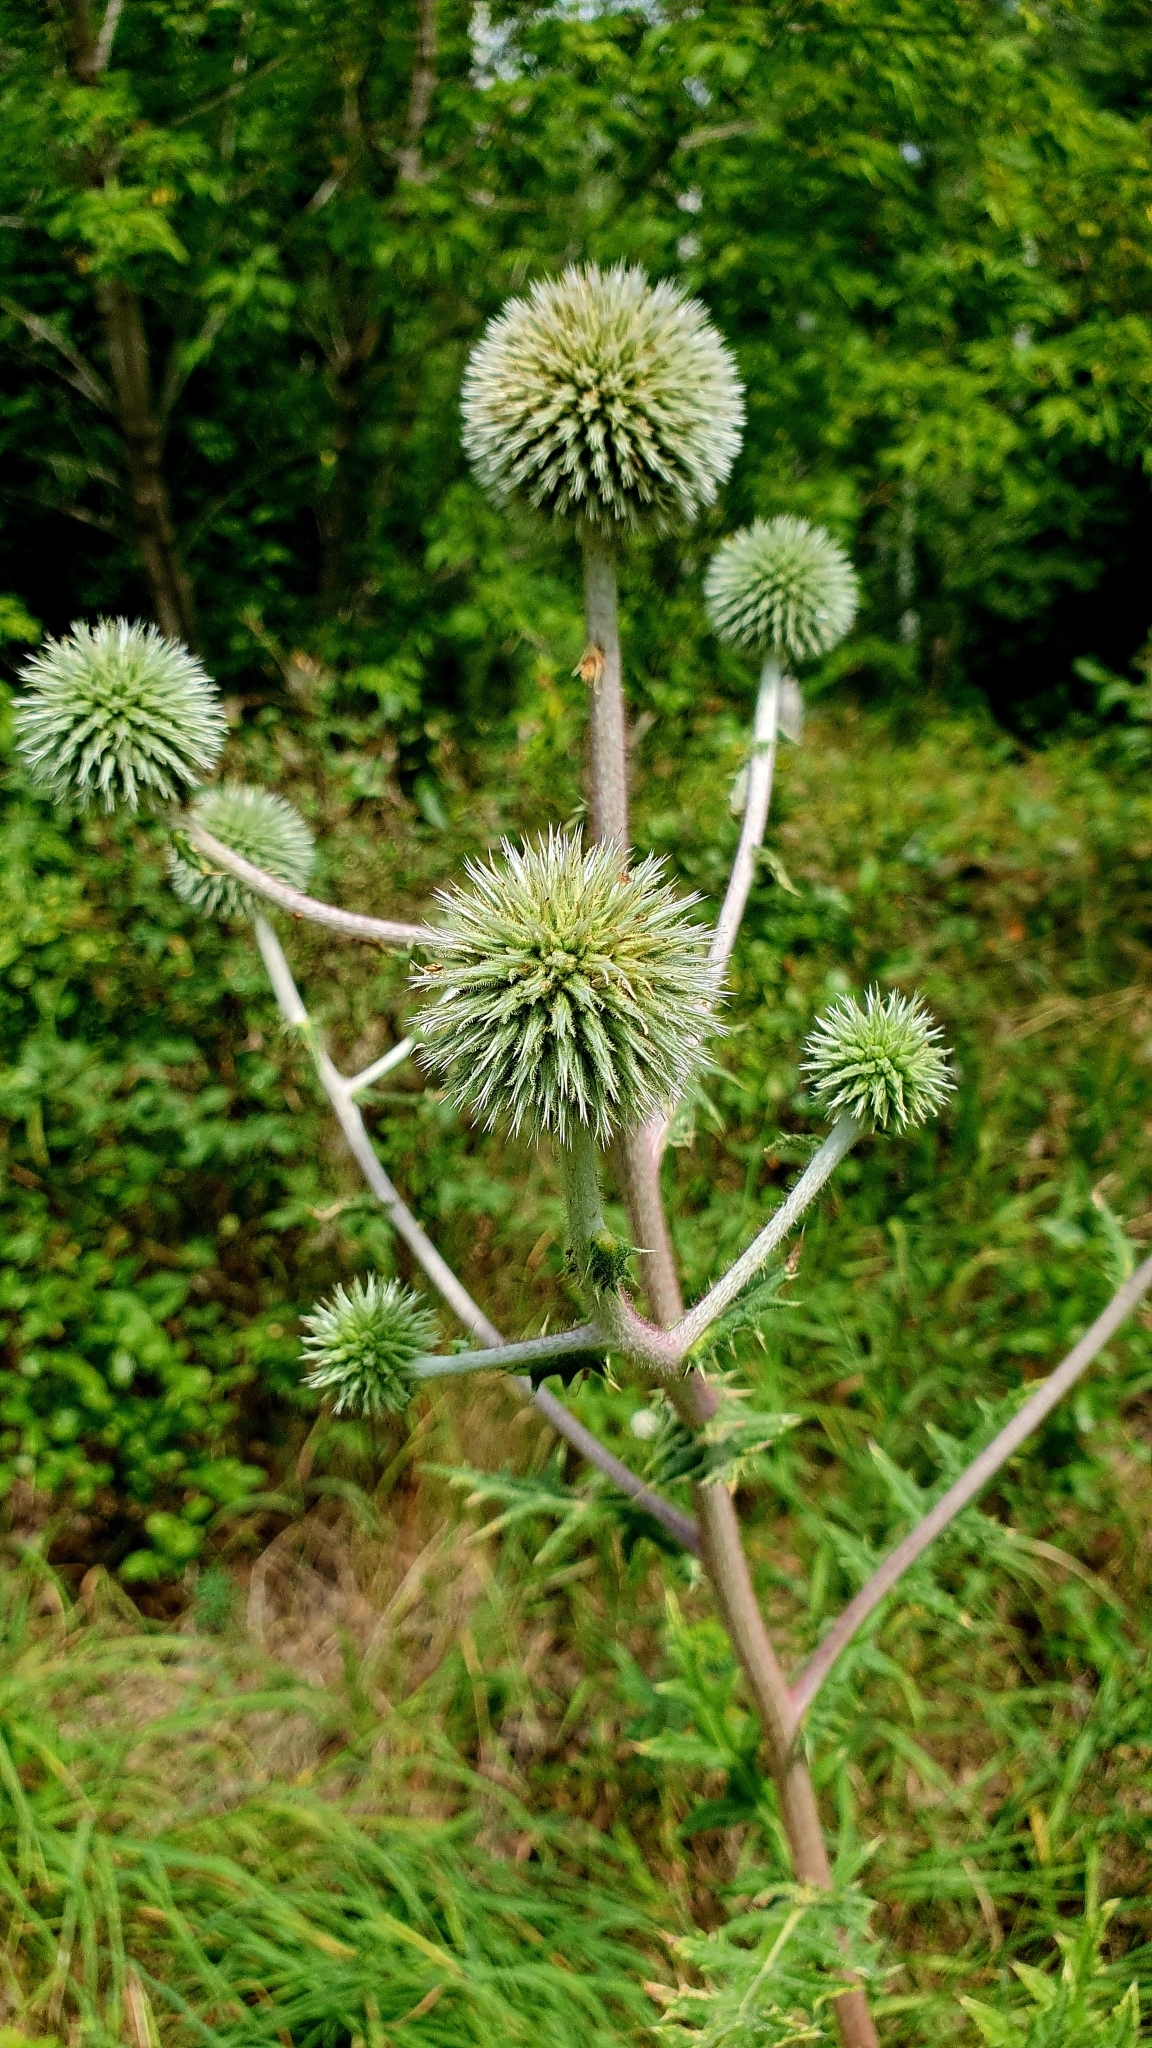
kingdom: Plantae
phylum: Tracheophyta
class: Magnoliopsida
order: Asterales
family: Asteraceae
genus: Echinops
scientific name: Echinops sphaerocephalus
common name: Glandular globe-thistle
